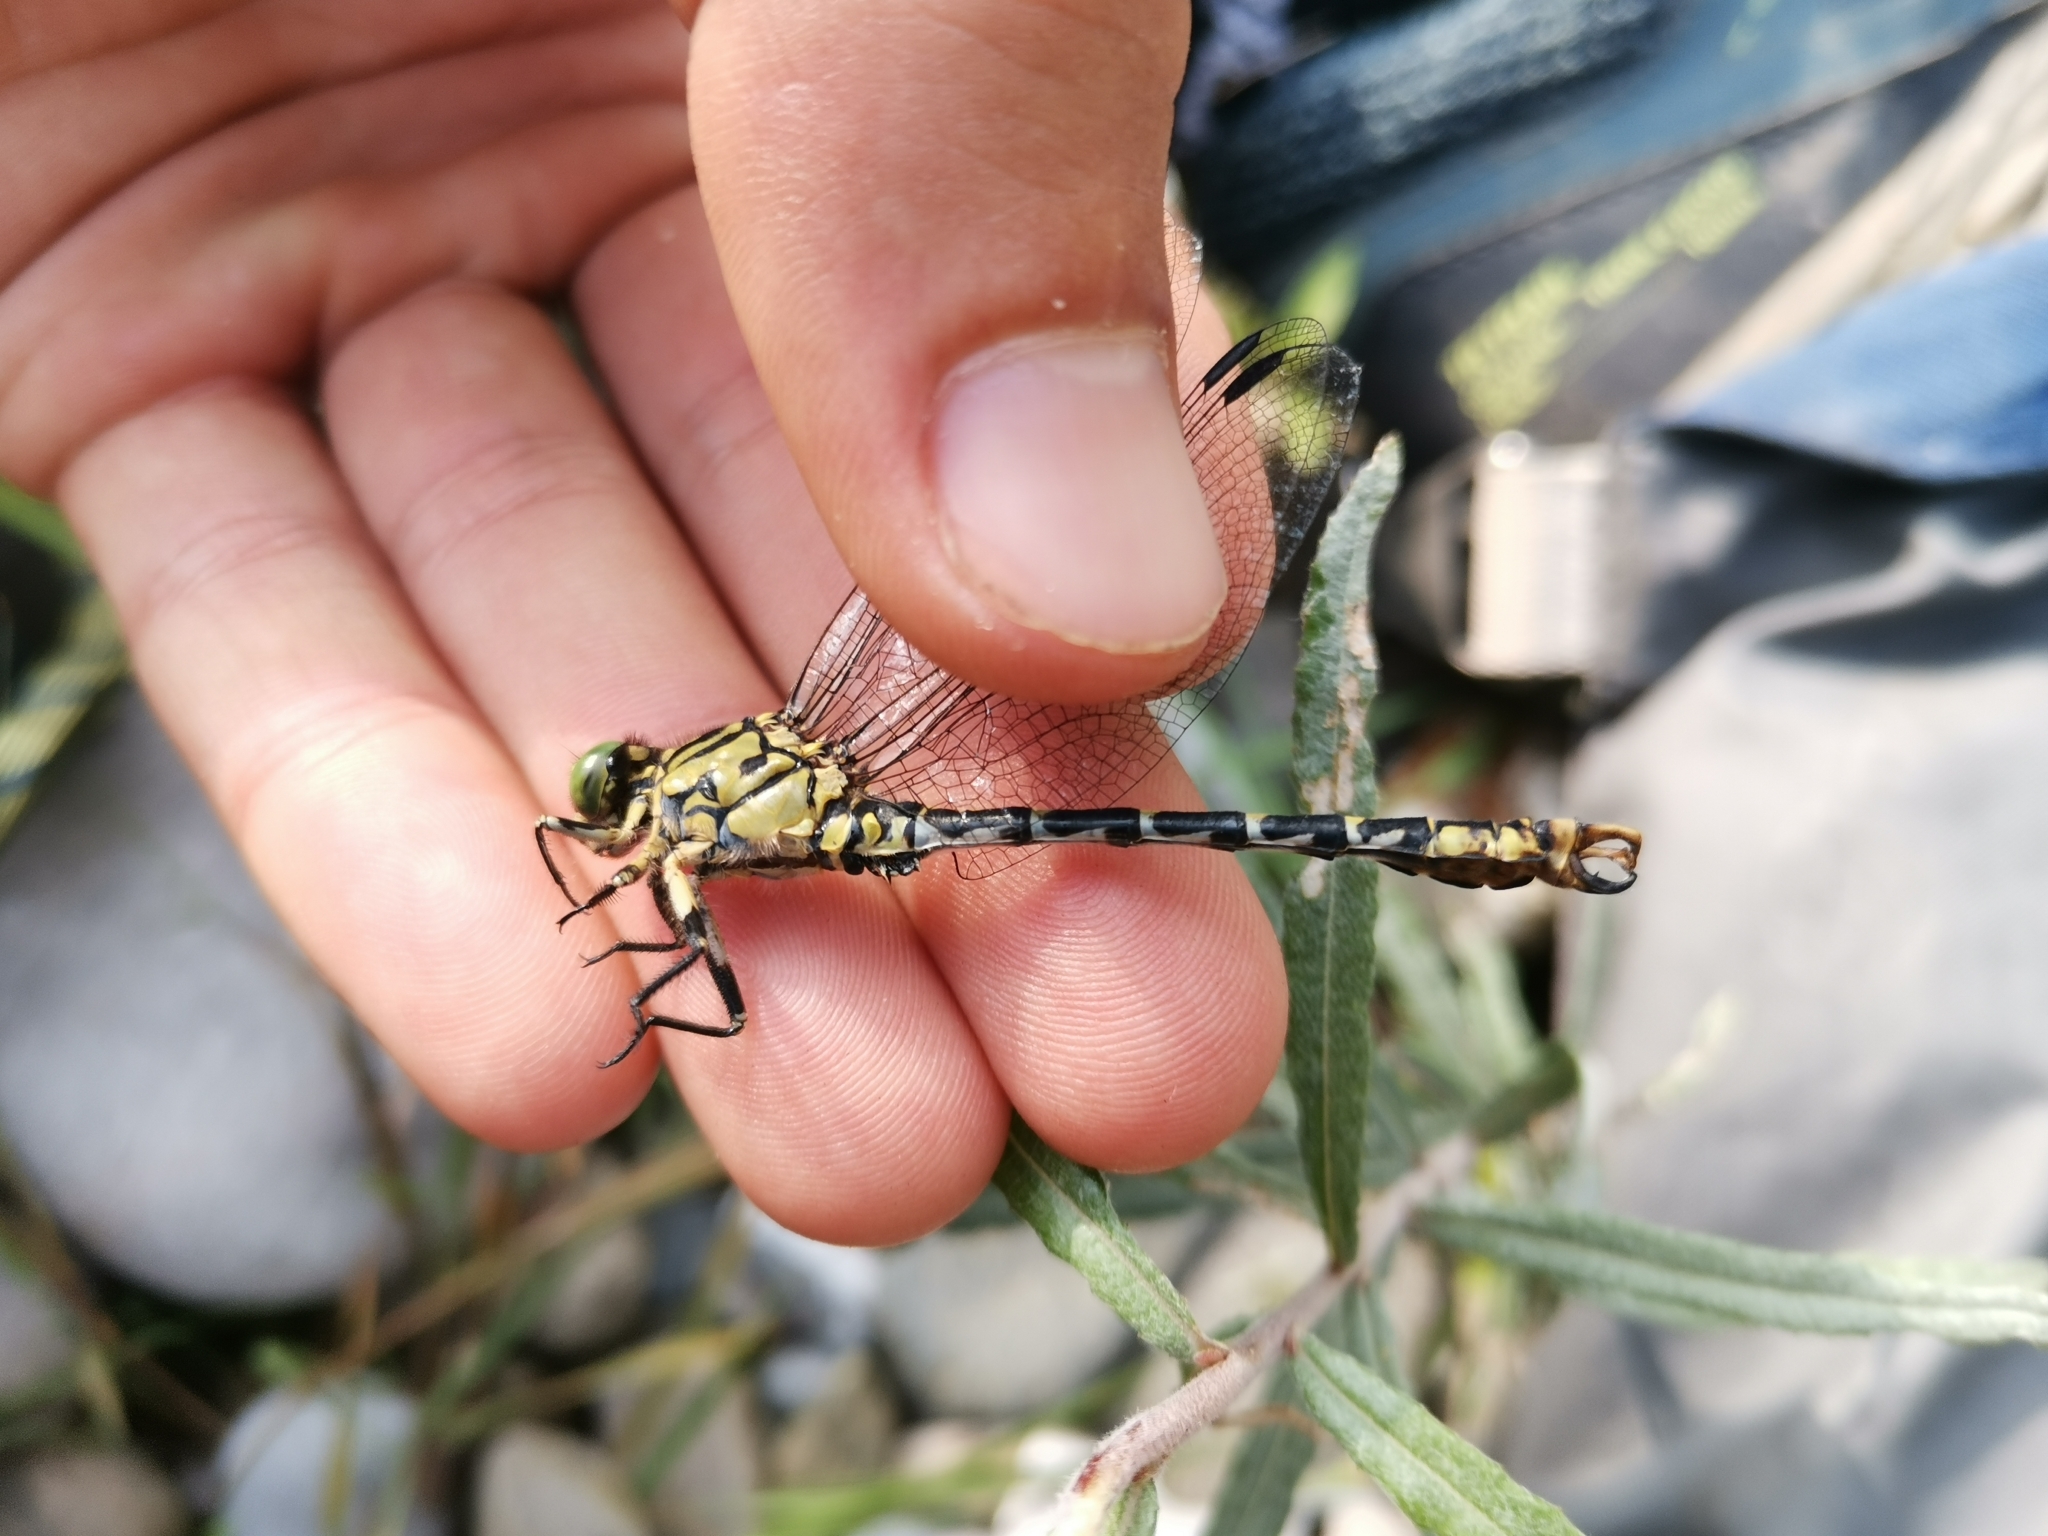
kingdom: Animalia
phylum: Arthropoda
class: Insecta
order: Odonata
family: Gomphidae
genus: Onychogomphus
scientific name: Onychogomphus forcipatus
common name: Small pincertail
